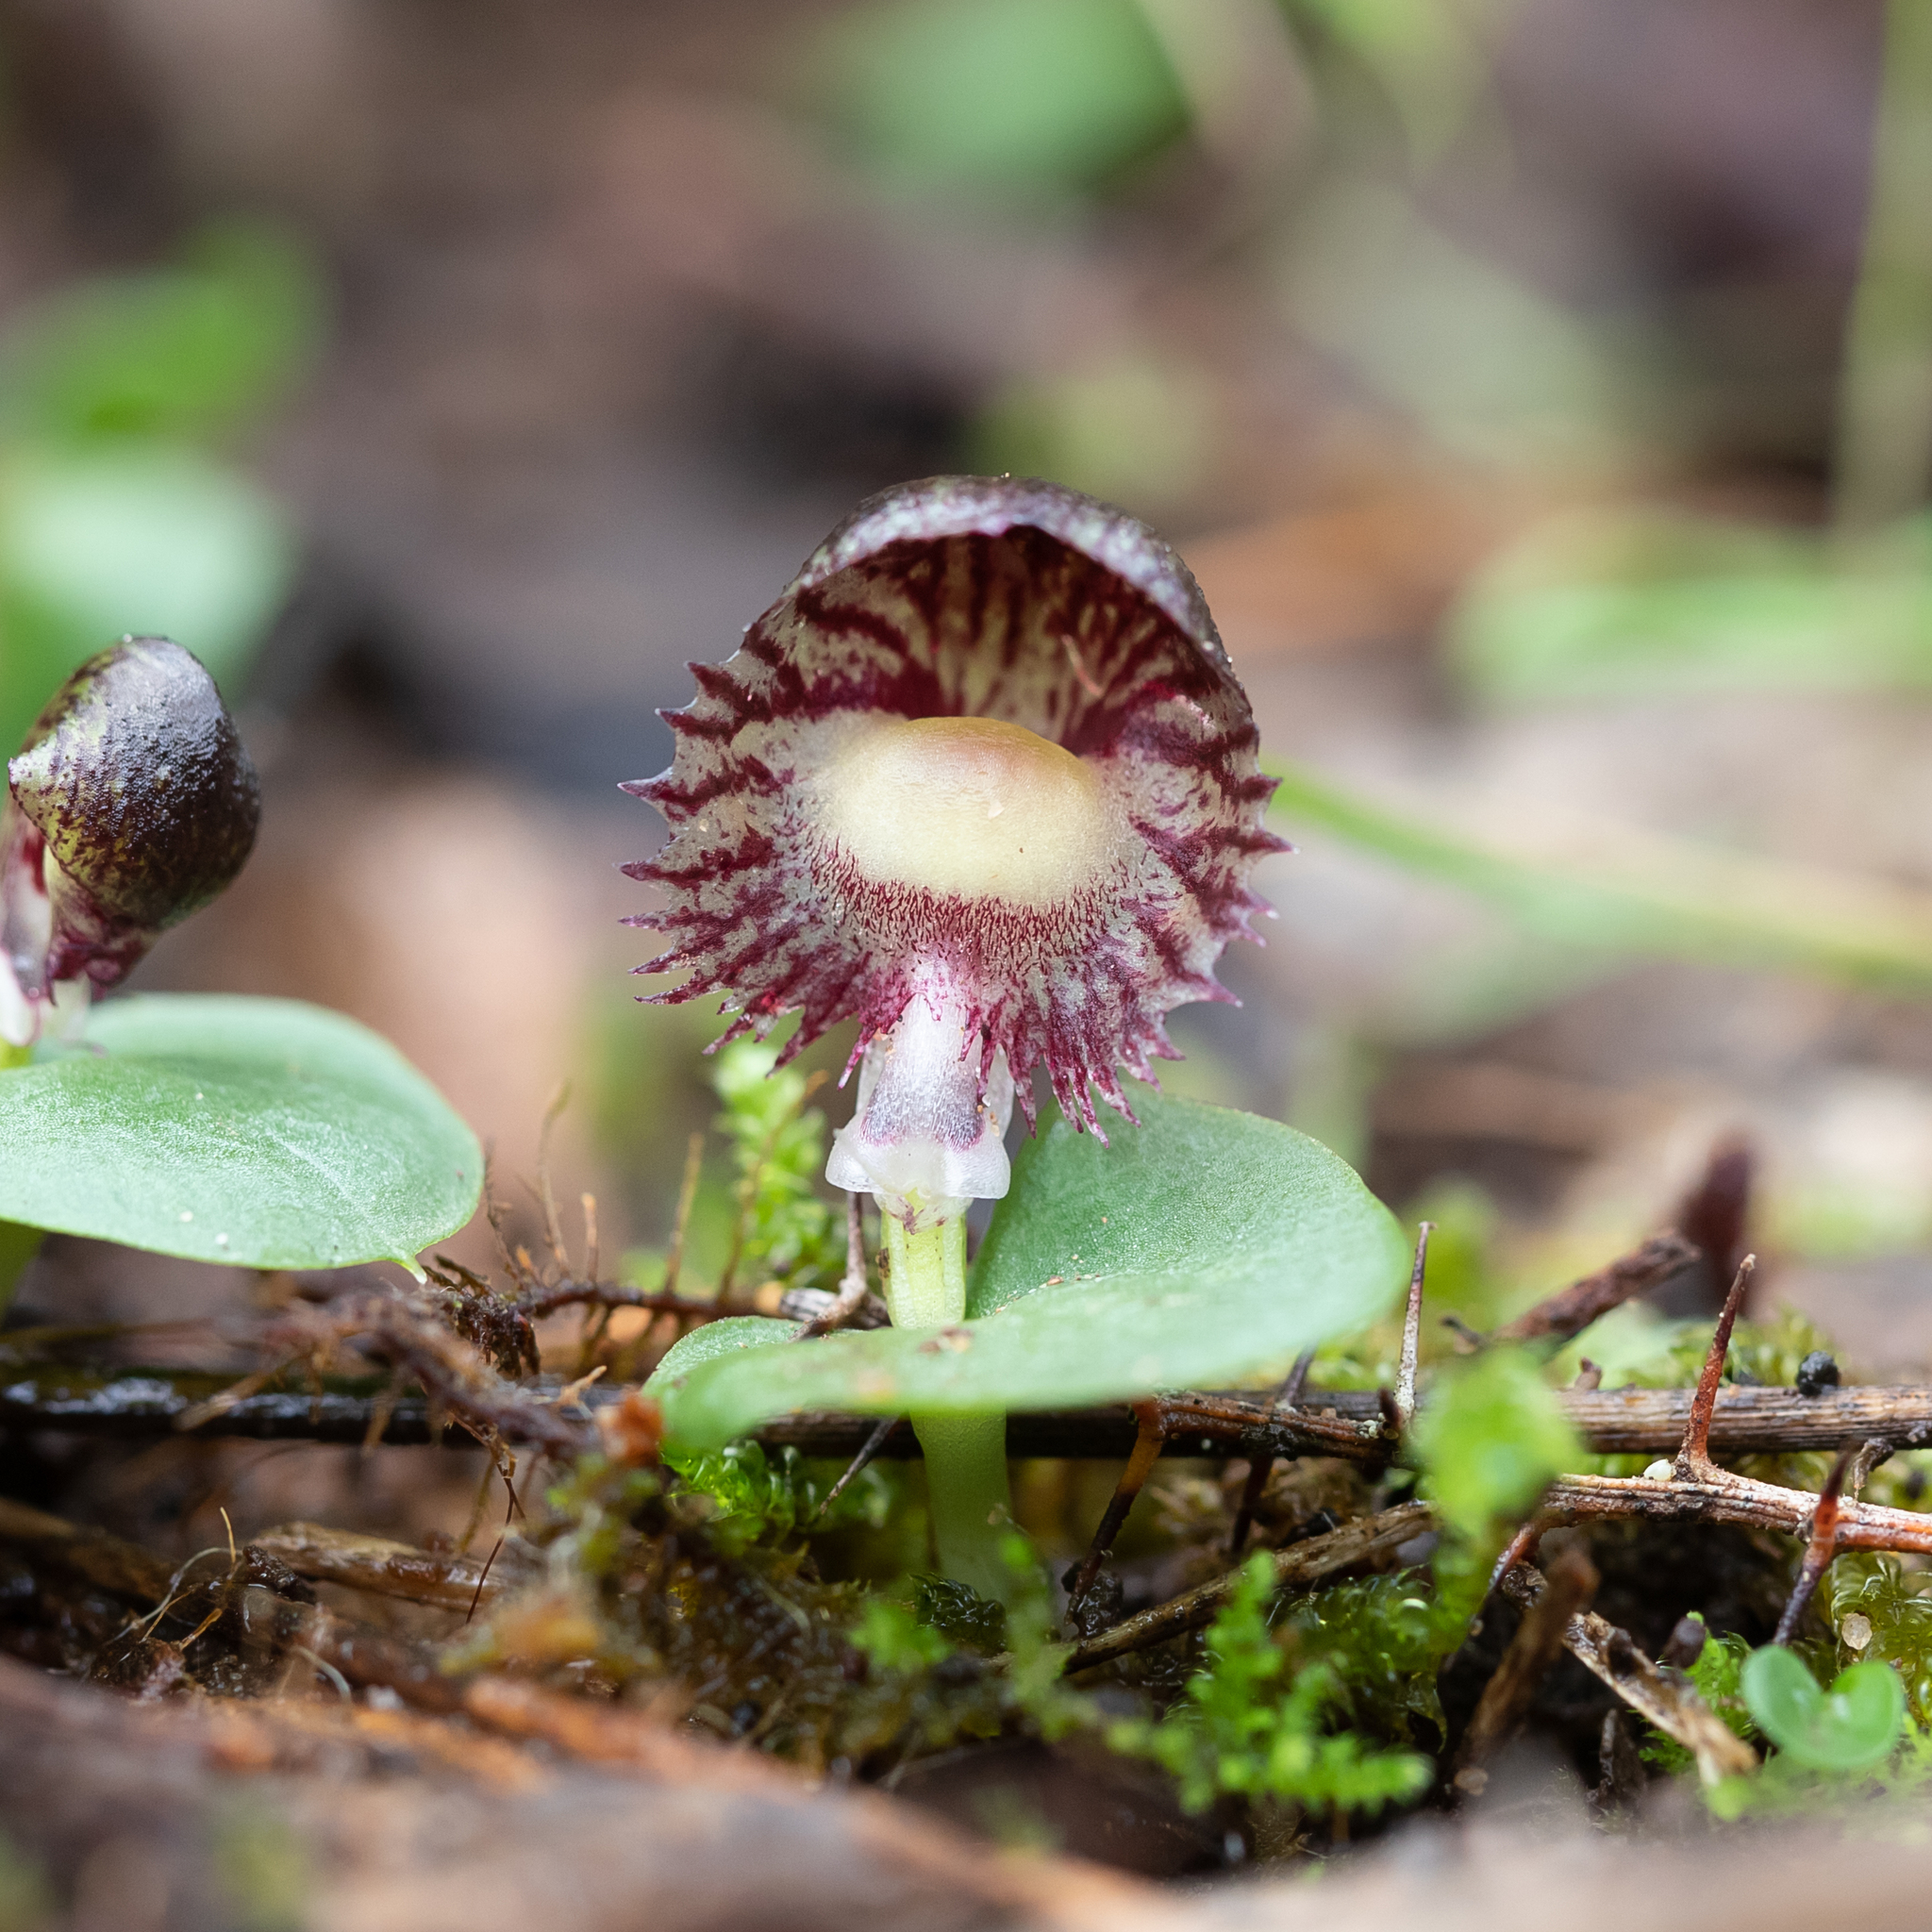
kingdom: Plantae
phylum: Tracheophyta
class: Liliopsida
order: Asparagales
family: Orchidaceae
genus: Corybas
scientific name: Corybas diemenicus
